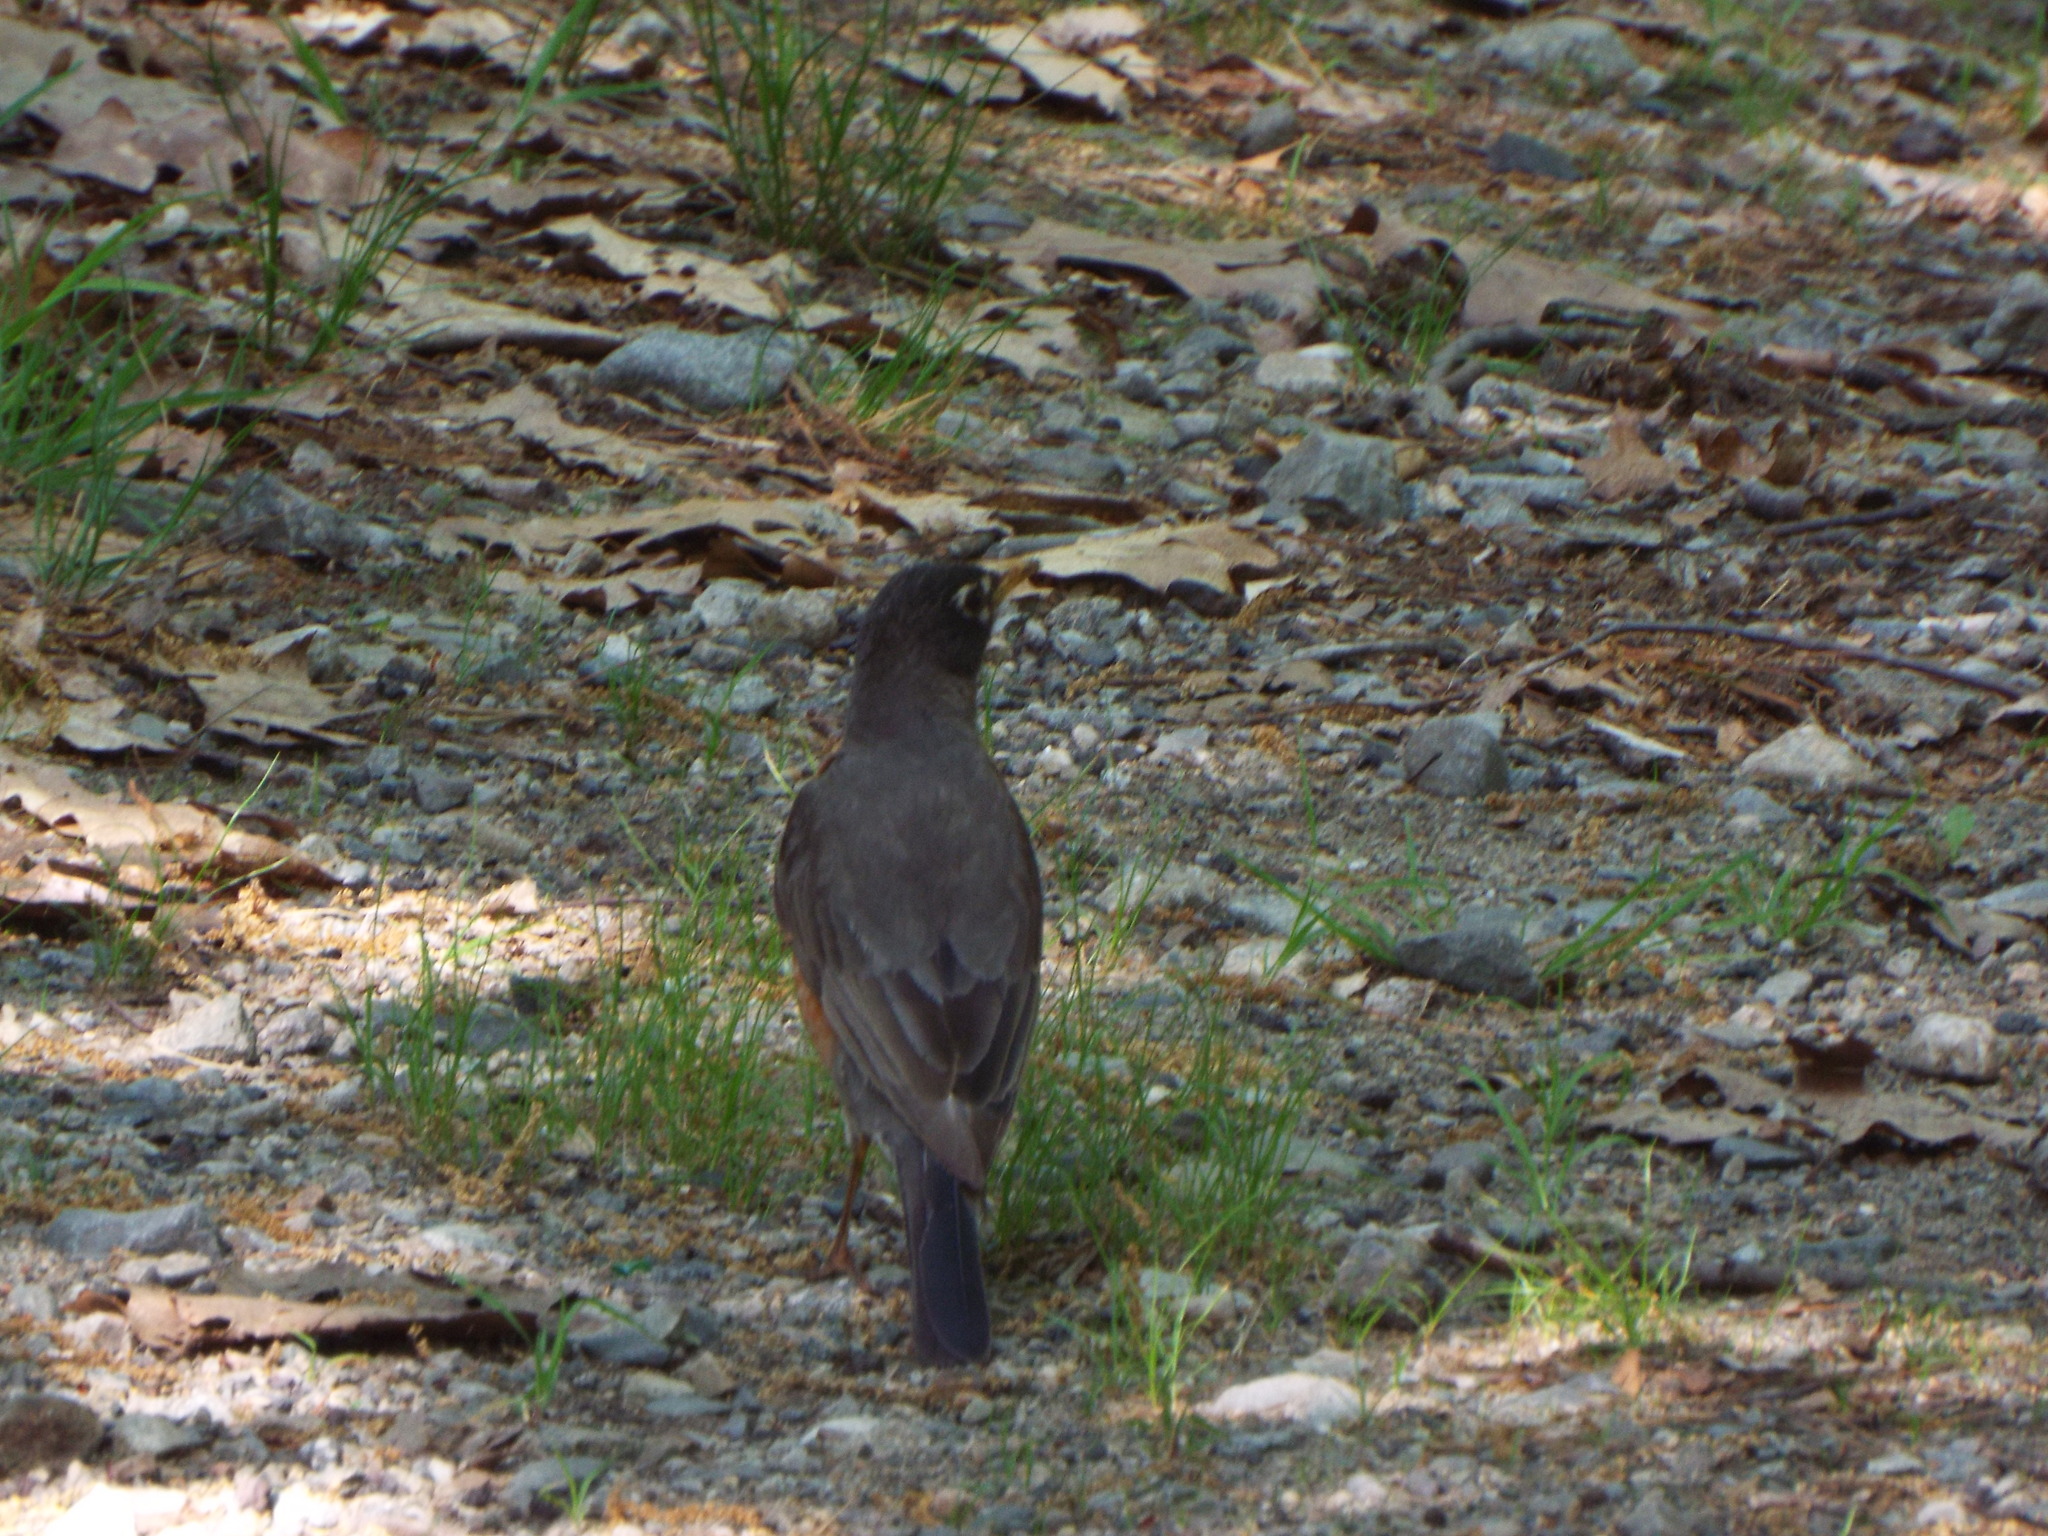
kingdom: Animalia
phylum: Chordata
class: Aves
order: Passeriformes
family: Turdidae
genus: Turdus
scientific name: Turdus migratorius
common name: American robin
